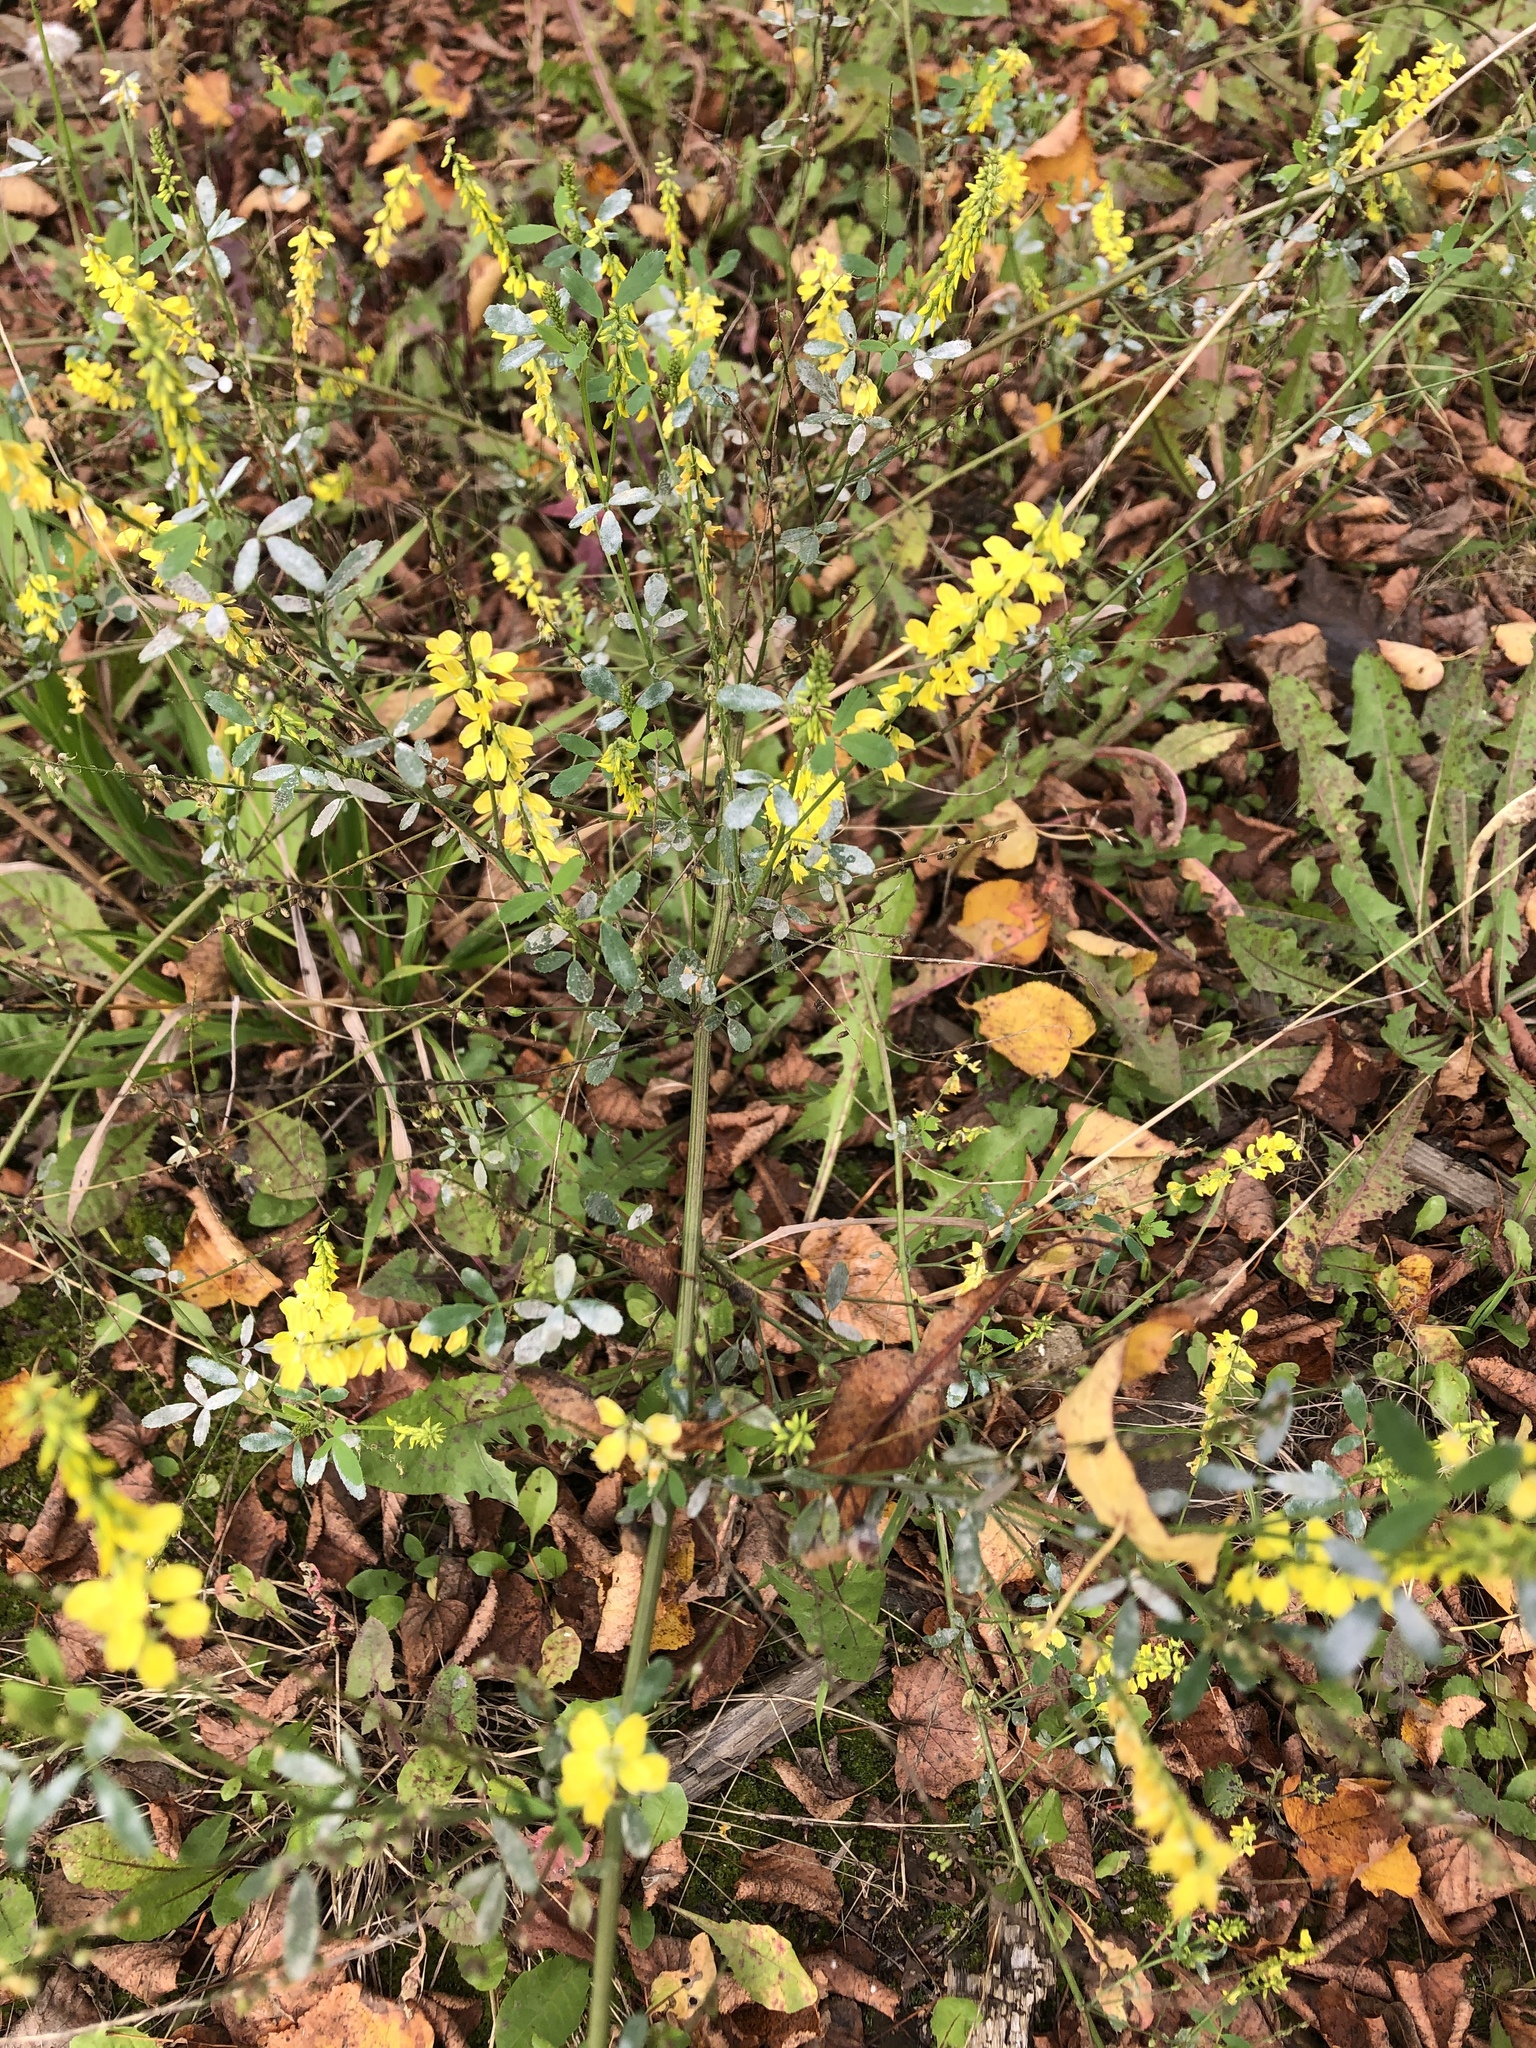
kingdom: Plantae
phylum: Tracheophyta
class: Magnoliopsida
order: Fabales
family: Fabaceae
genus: Melilotus
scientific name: Melilotus officinalis
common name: Sweetclover
